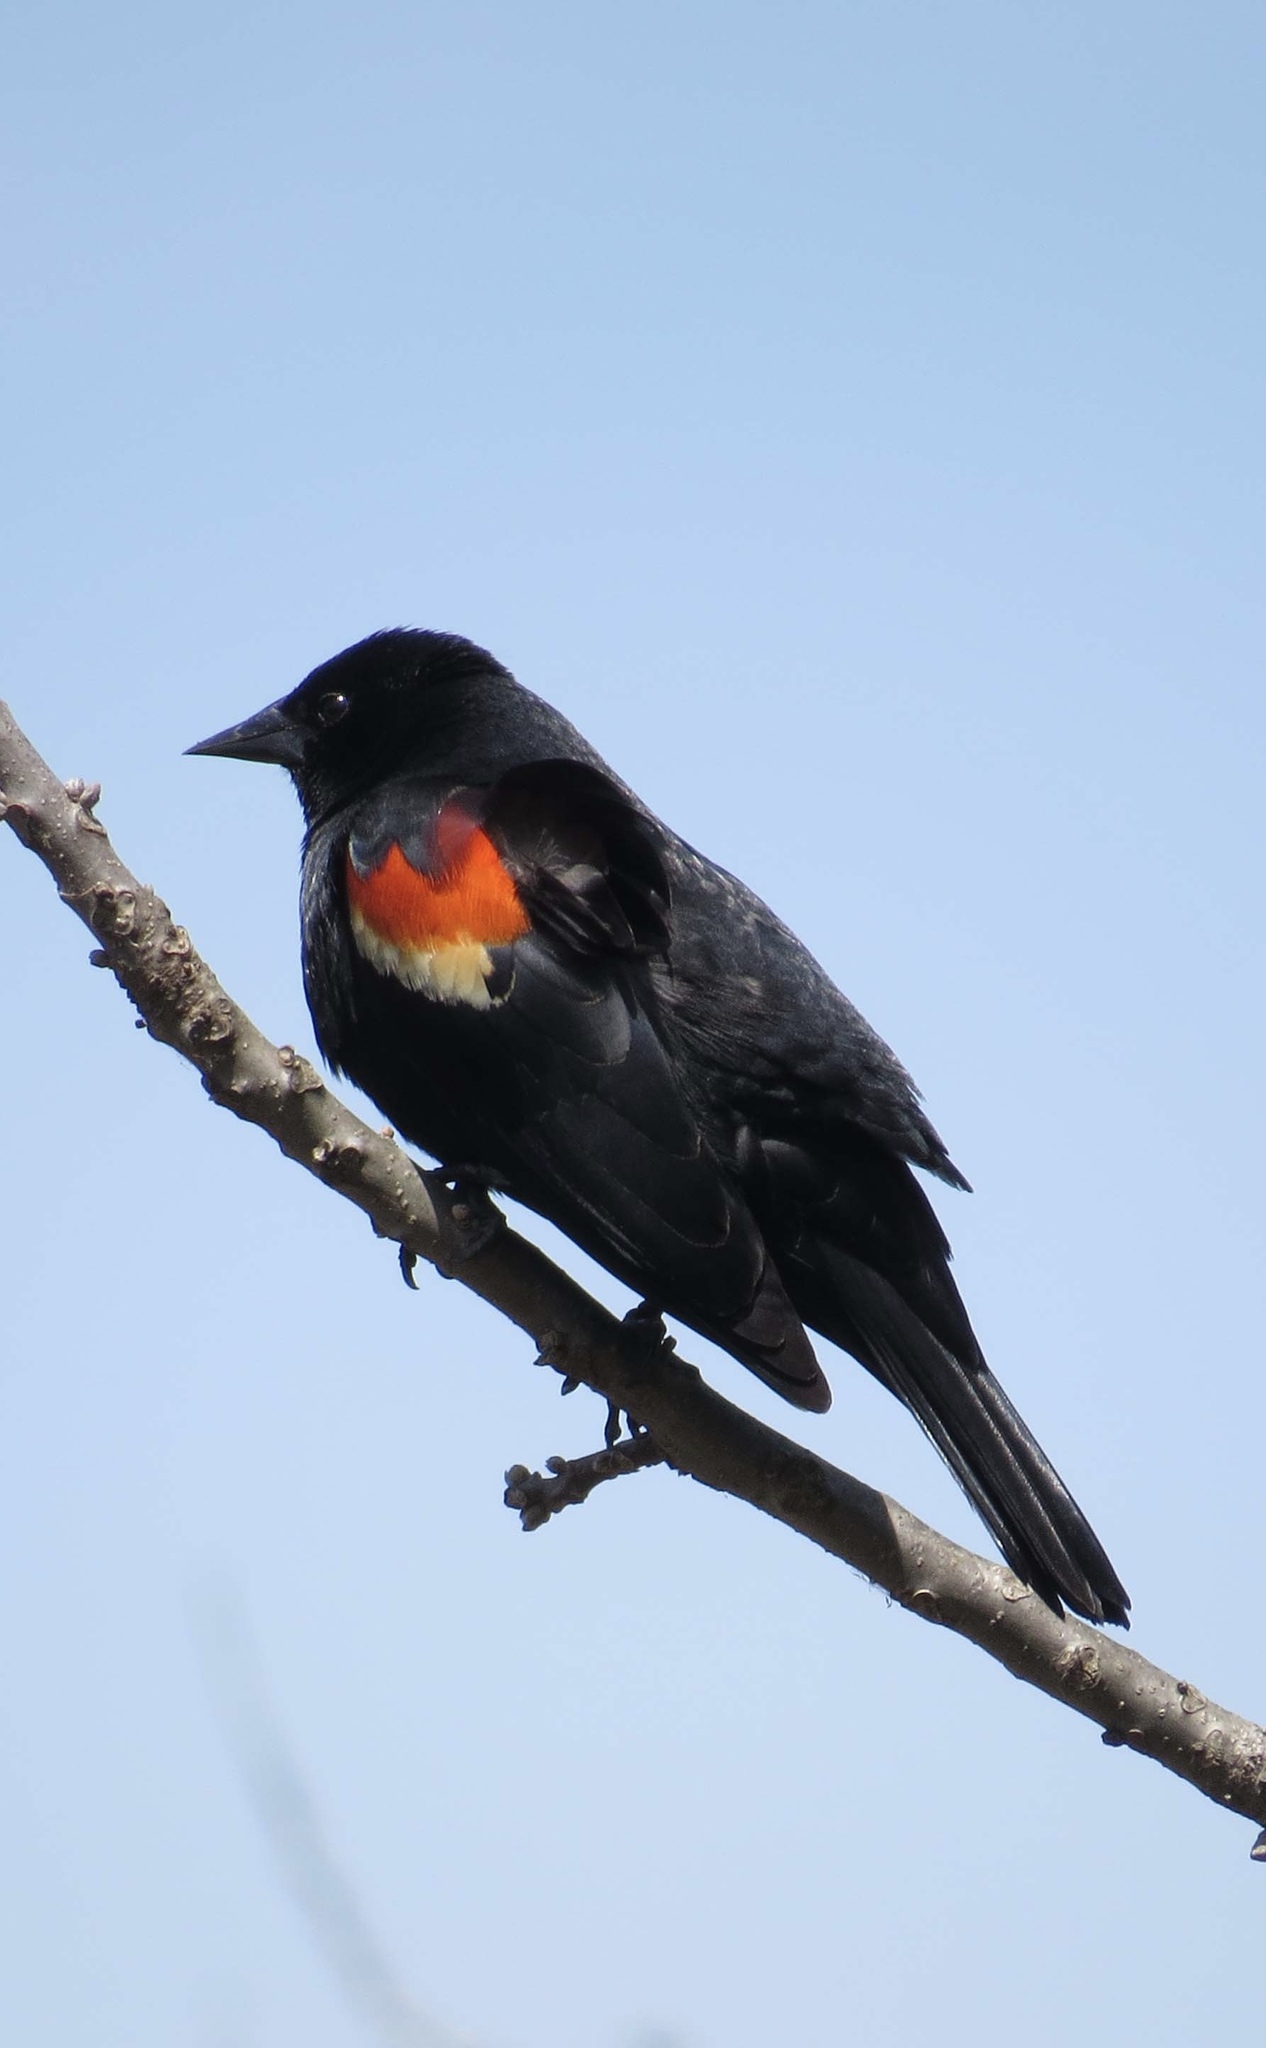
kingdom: Animalia
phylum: Chordata
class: Aves
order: Passeriformes
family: Icteridae
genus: Agelaius
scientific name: Agelaius phoeniceus
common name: Red-winged blackbird
